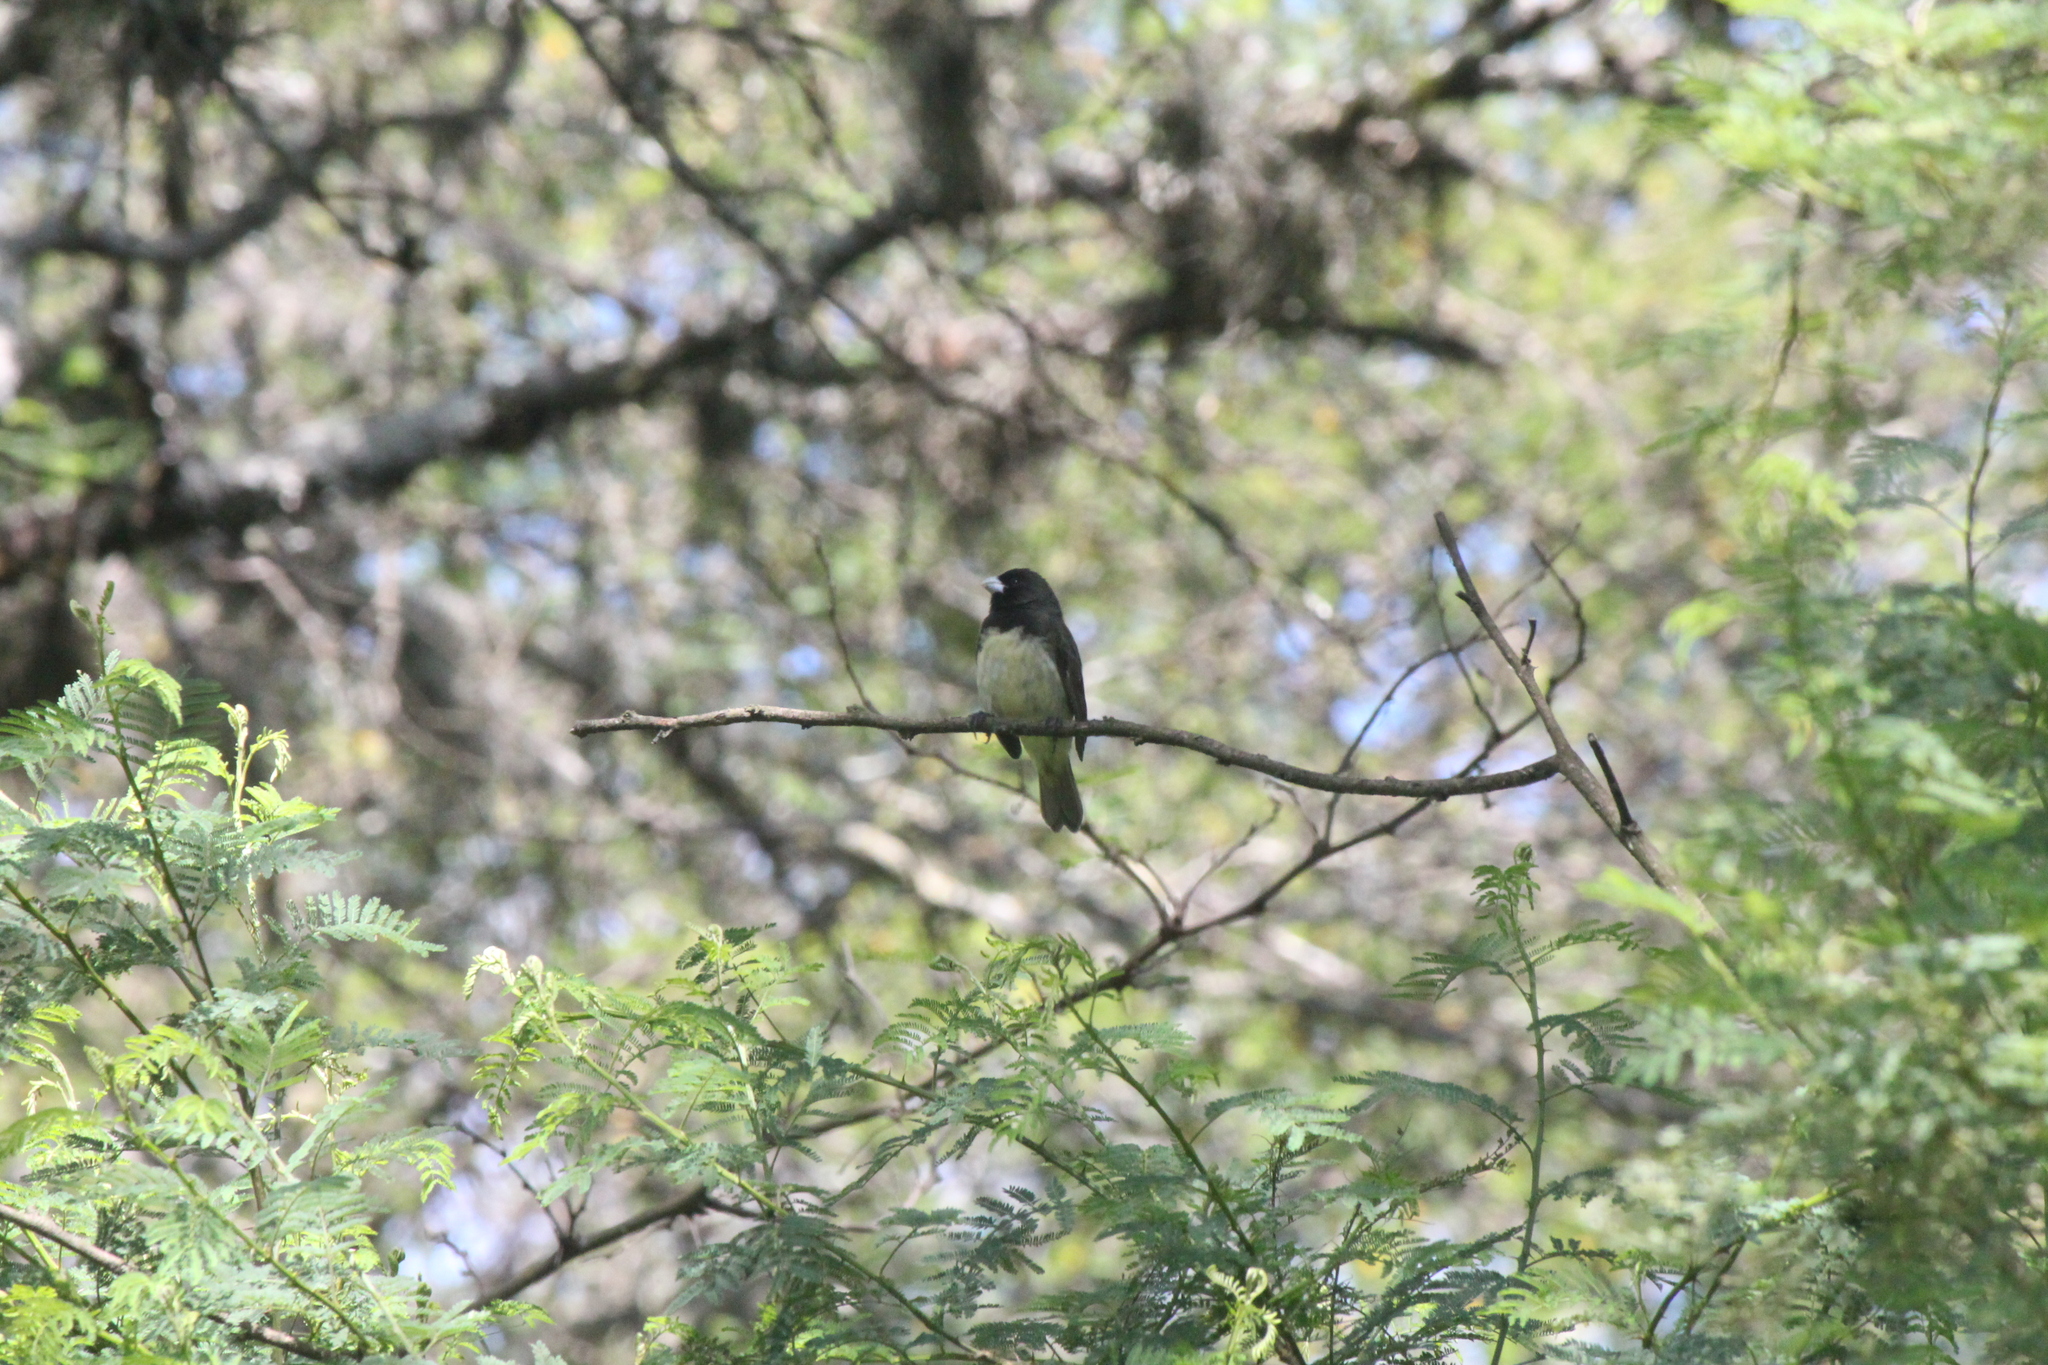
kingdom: Animalia
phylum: Chordata
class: Aves
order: Passeriformes
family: Thraupidae
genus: Sporophila
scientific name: Sporophila nigricollis
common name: Yellow-bellied seedeater
